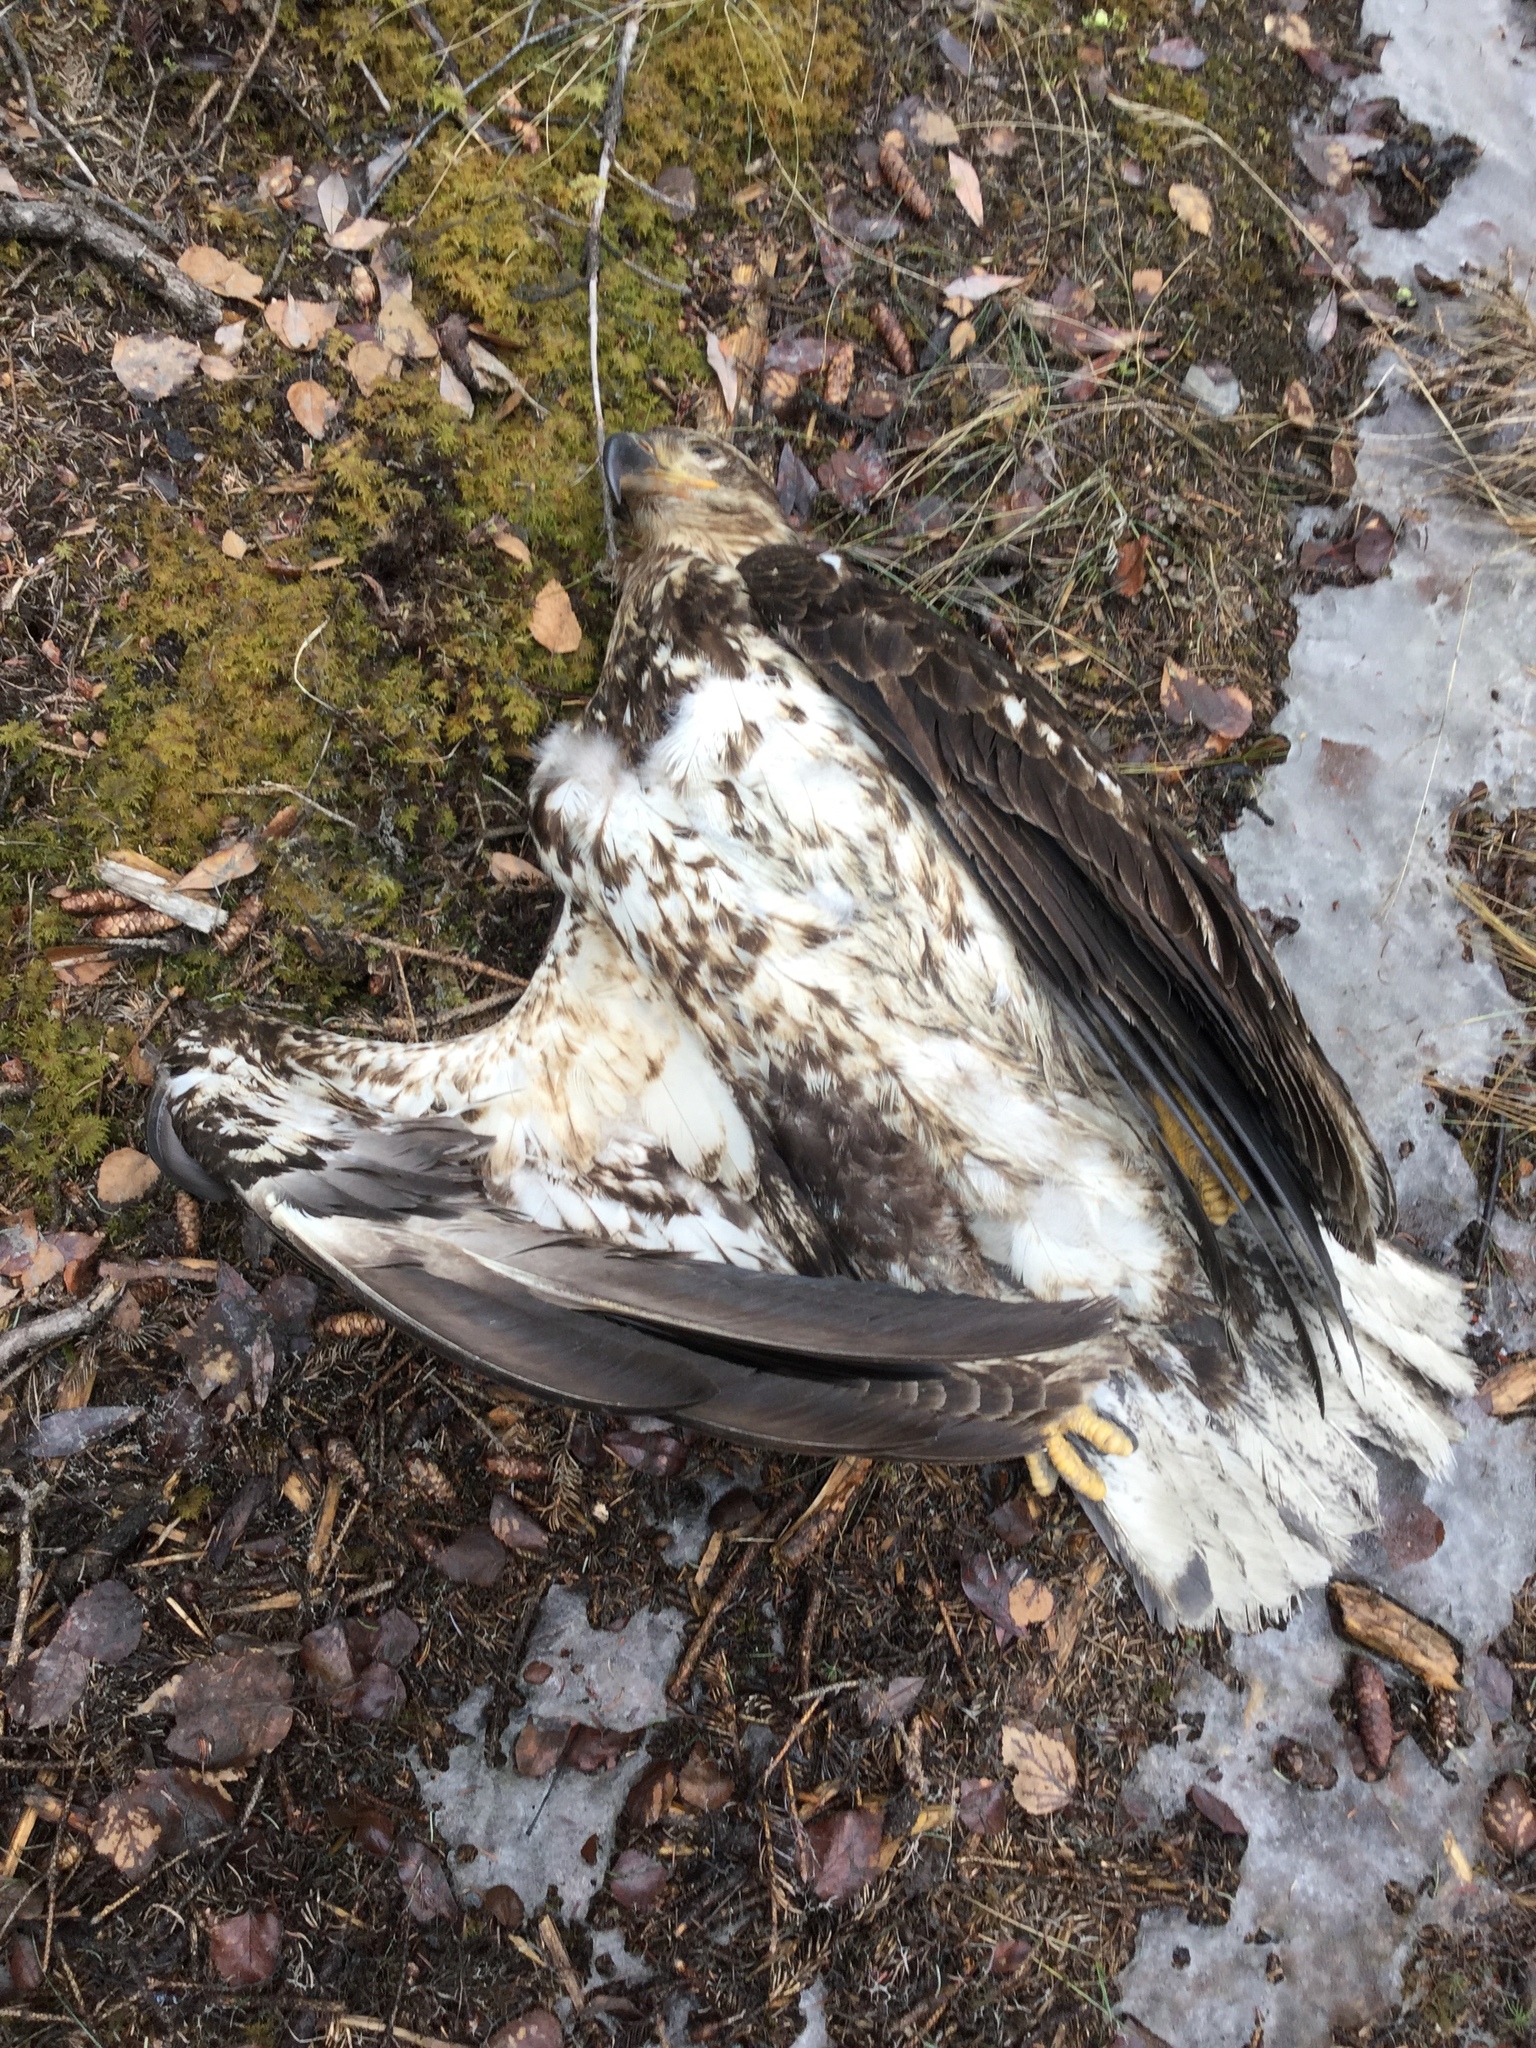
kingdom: Animalia
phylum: Chordata
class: Aves
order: Accipitriformes
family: Accipitridae
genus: Haliaeetus
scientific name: Haliaeetus leucocephalus
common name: Bald eagle
